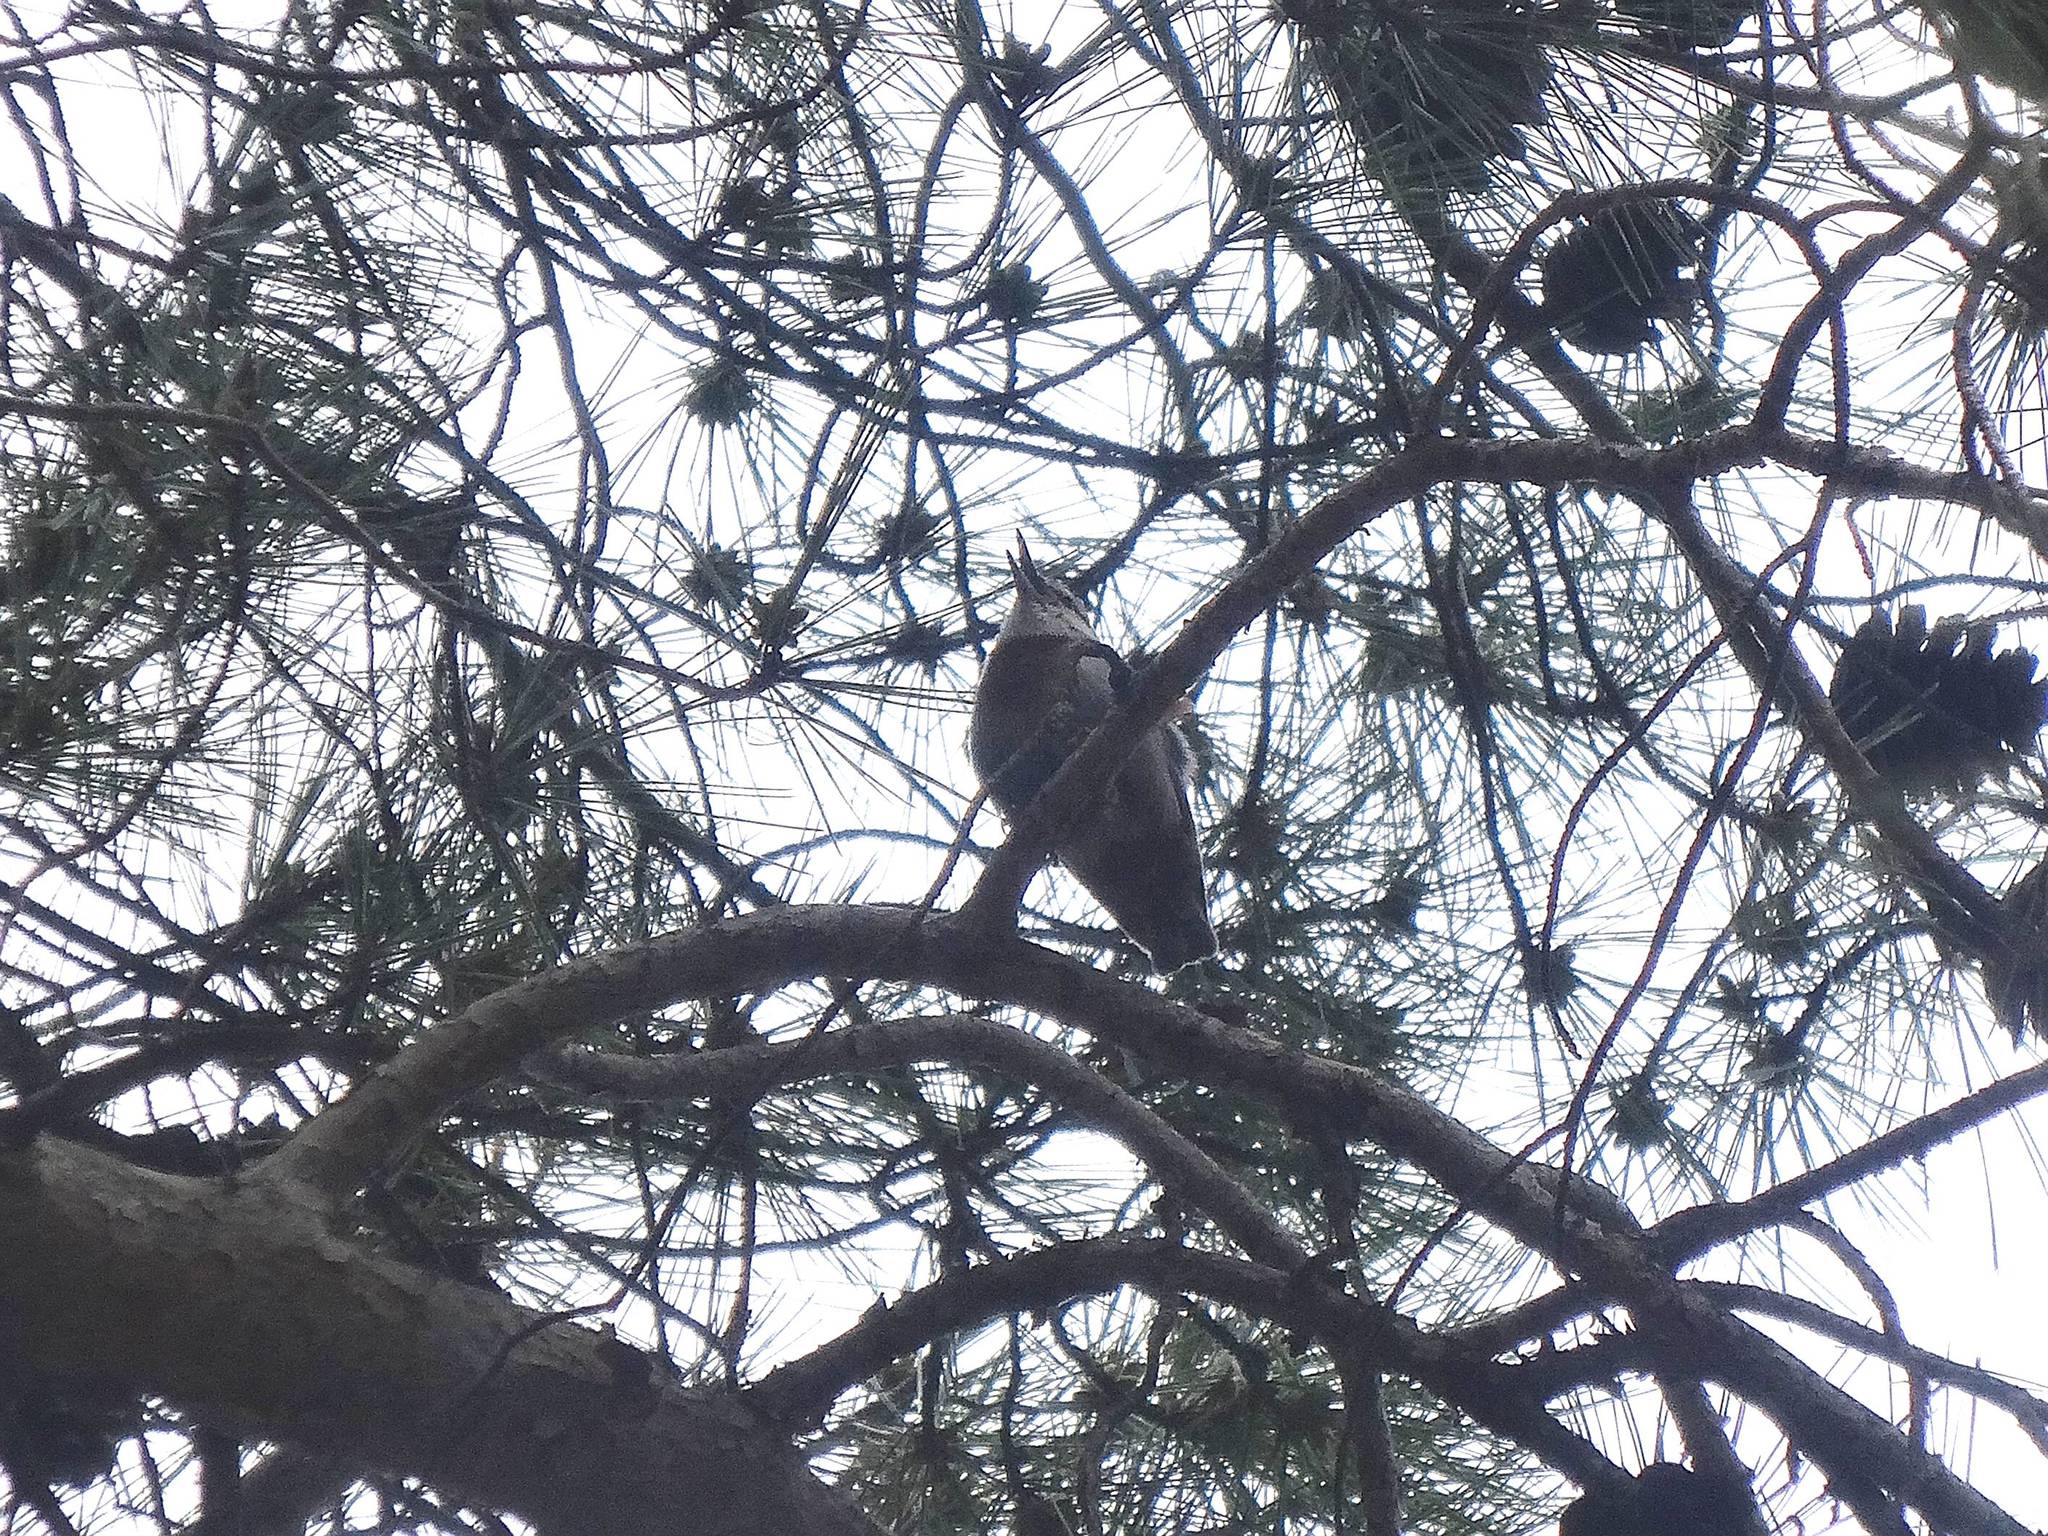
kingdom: Animalia
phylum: Chordata
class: Aves
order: Passeriformes
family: Sittidae
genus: Sitta
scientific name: Sitta krueperi
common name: Krüper's nuthatch
